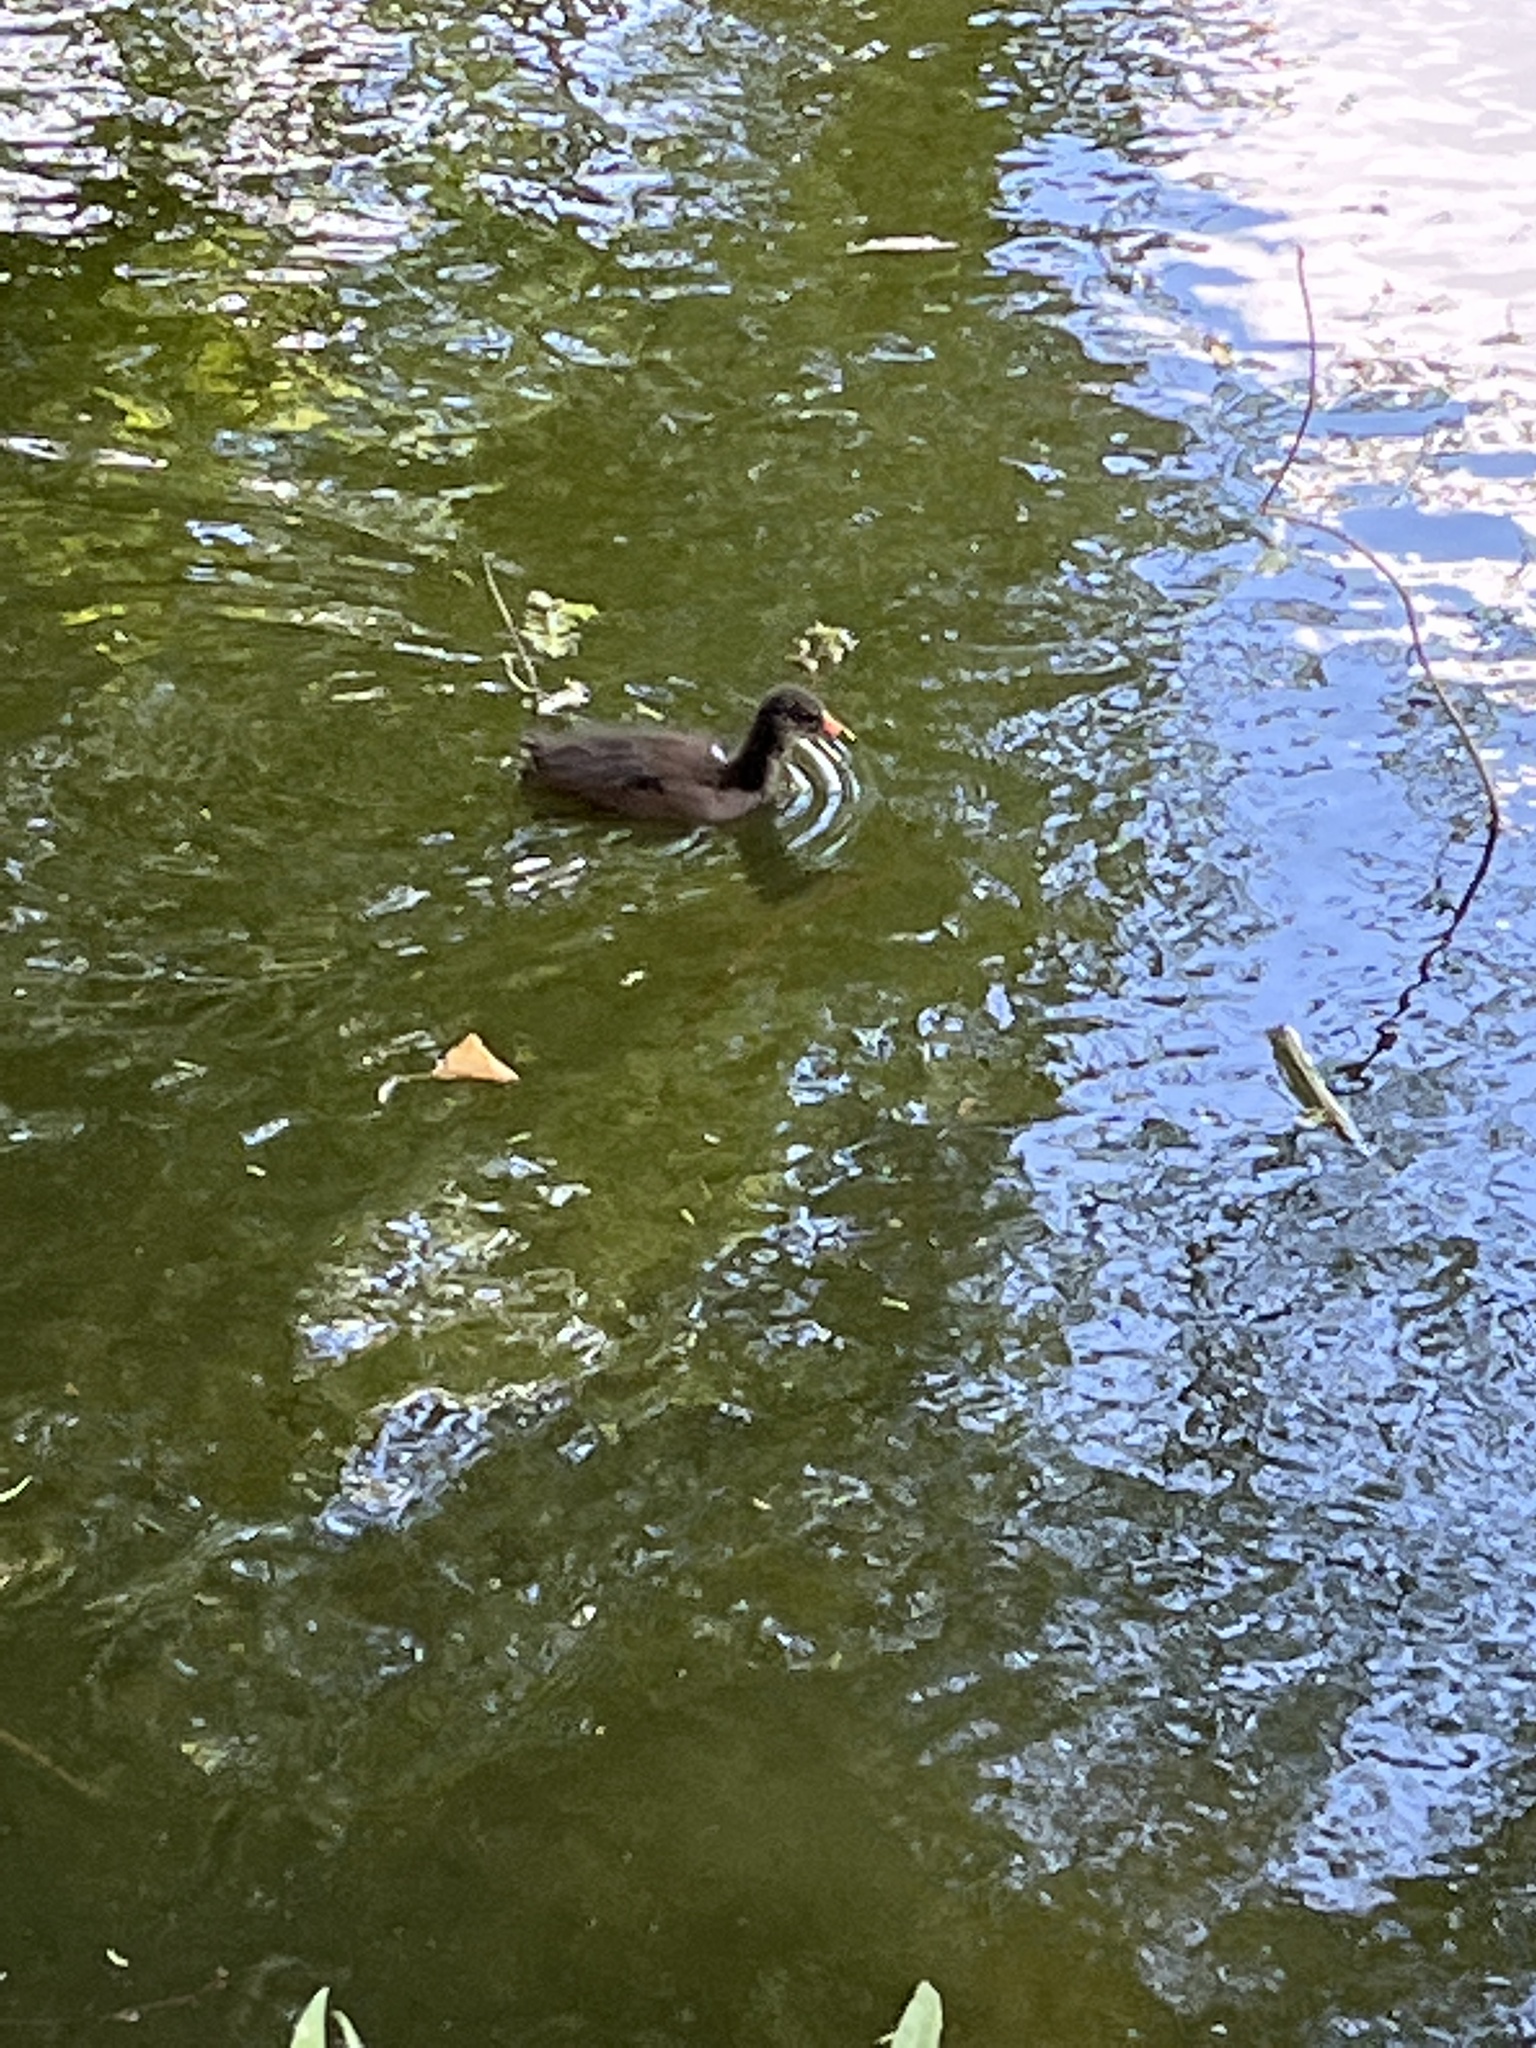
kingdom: Animalia
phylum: Chordata
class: Aves
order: Gruiformes
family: Rallidae
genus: Fulica
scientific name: Fulica atra
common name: Eurasian coot
